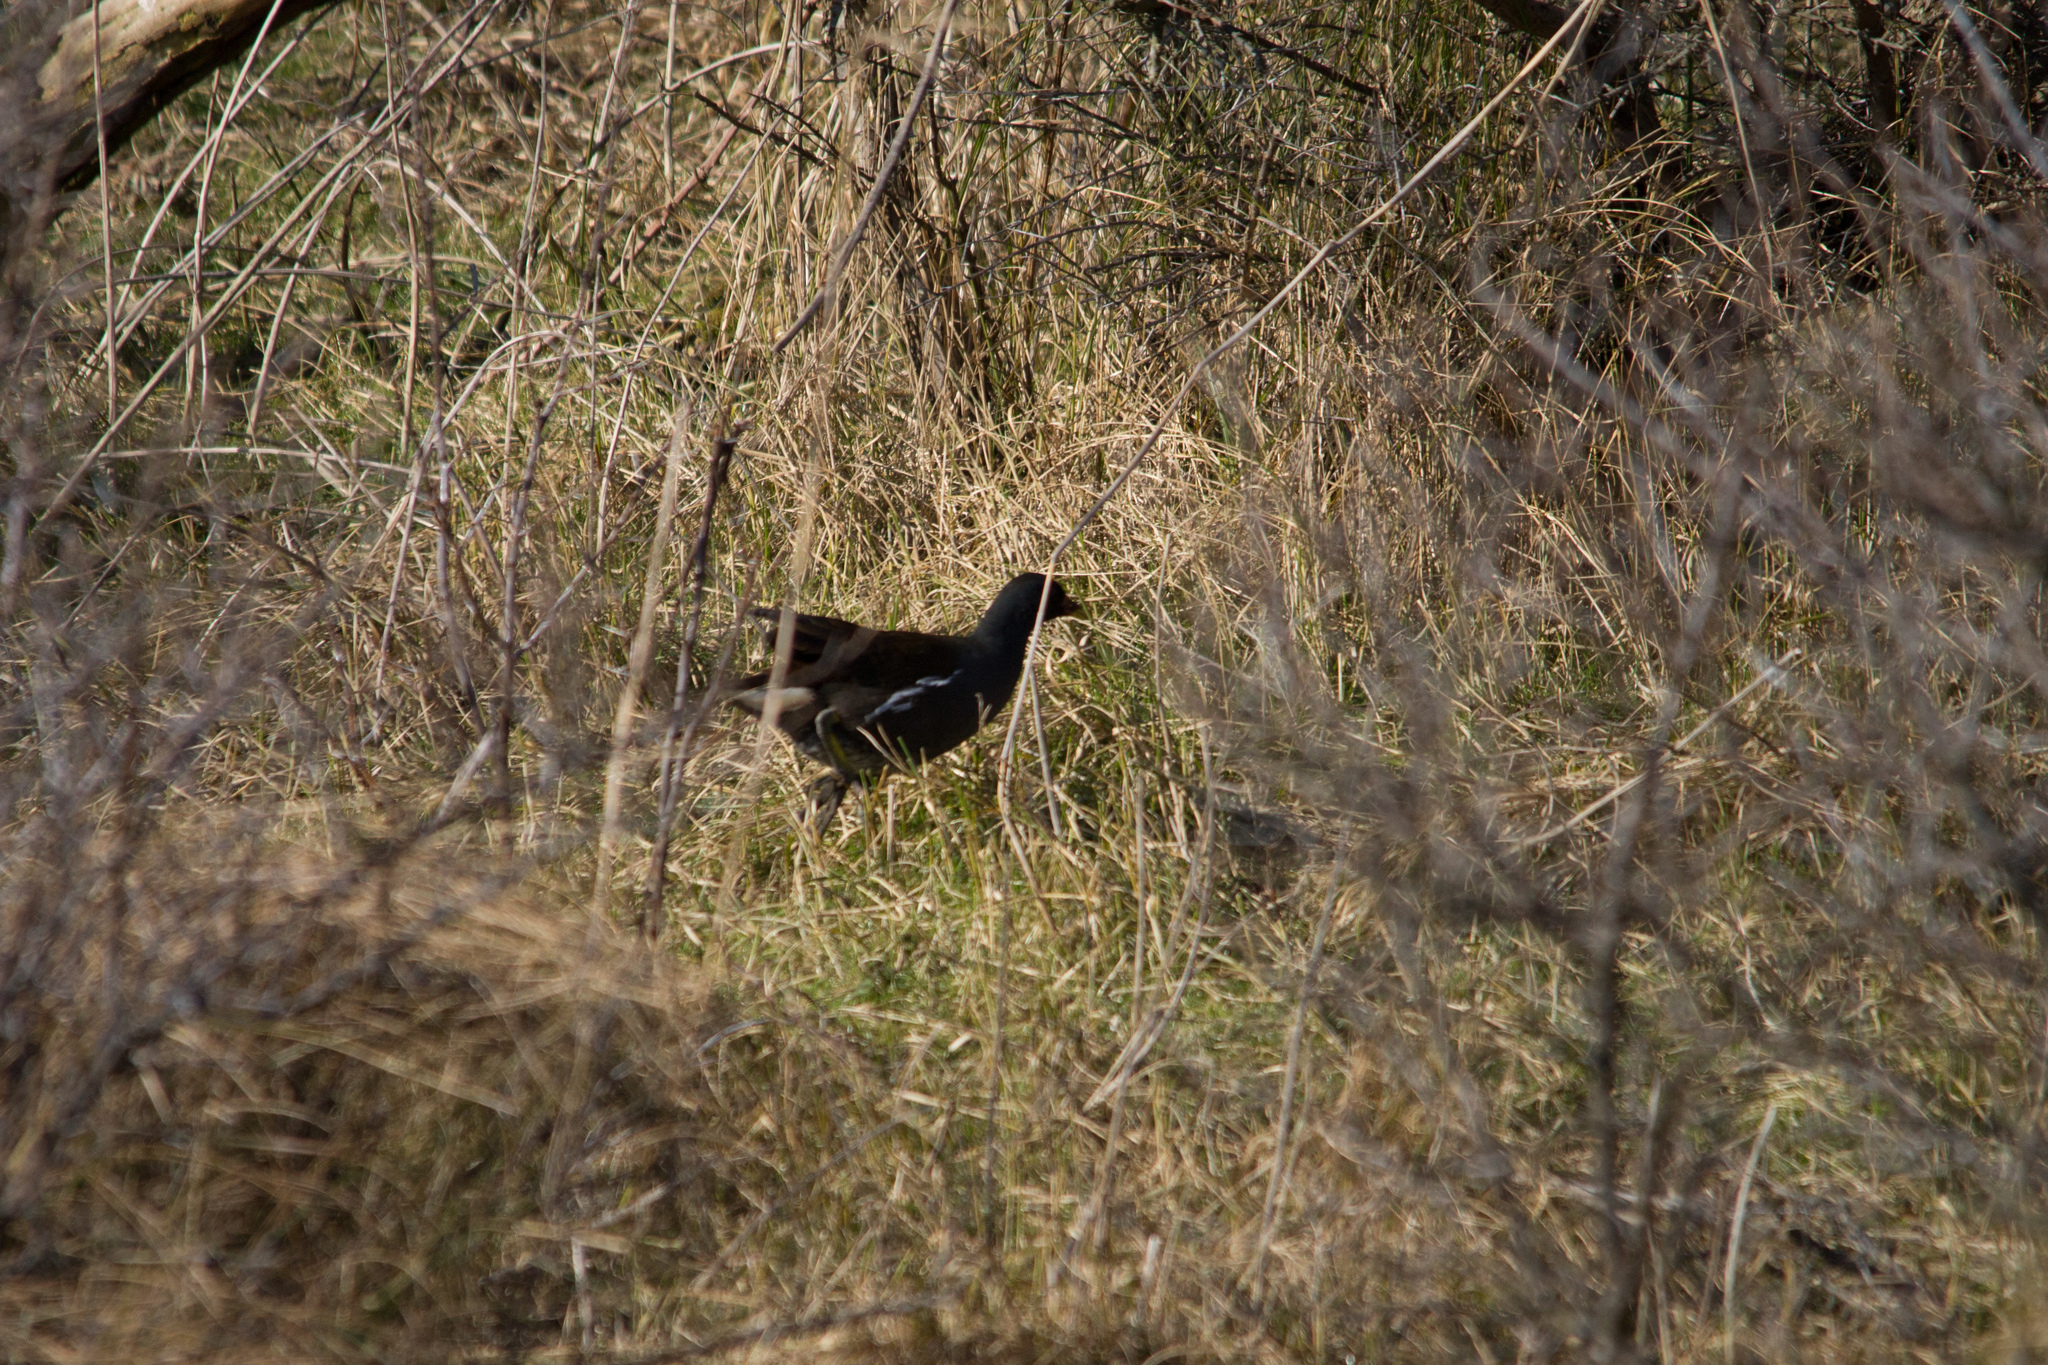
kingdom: Animalia
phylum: Chordata
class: Aves
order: Gruiformes
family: Rallidae
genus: Gallinula
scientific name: Gallinula chloropus
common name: Common moorhen
